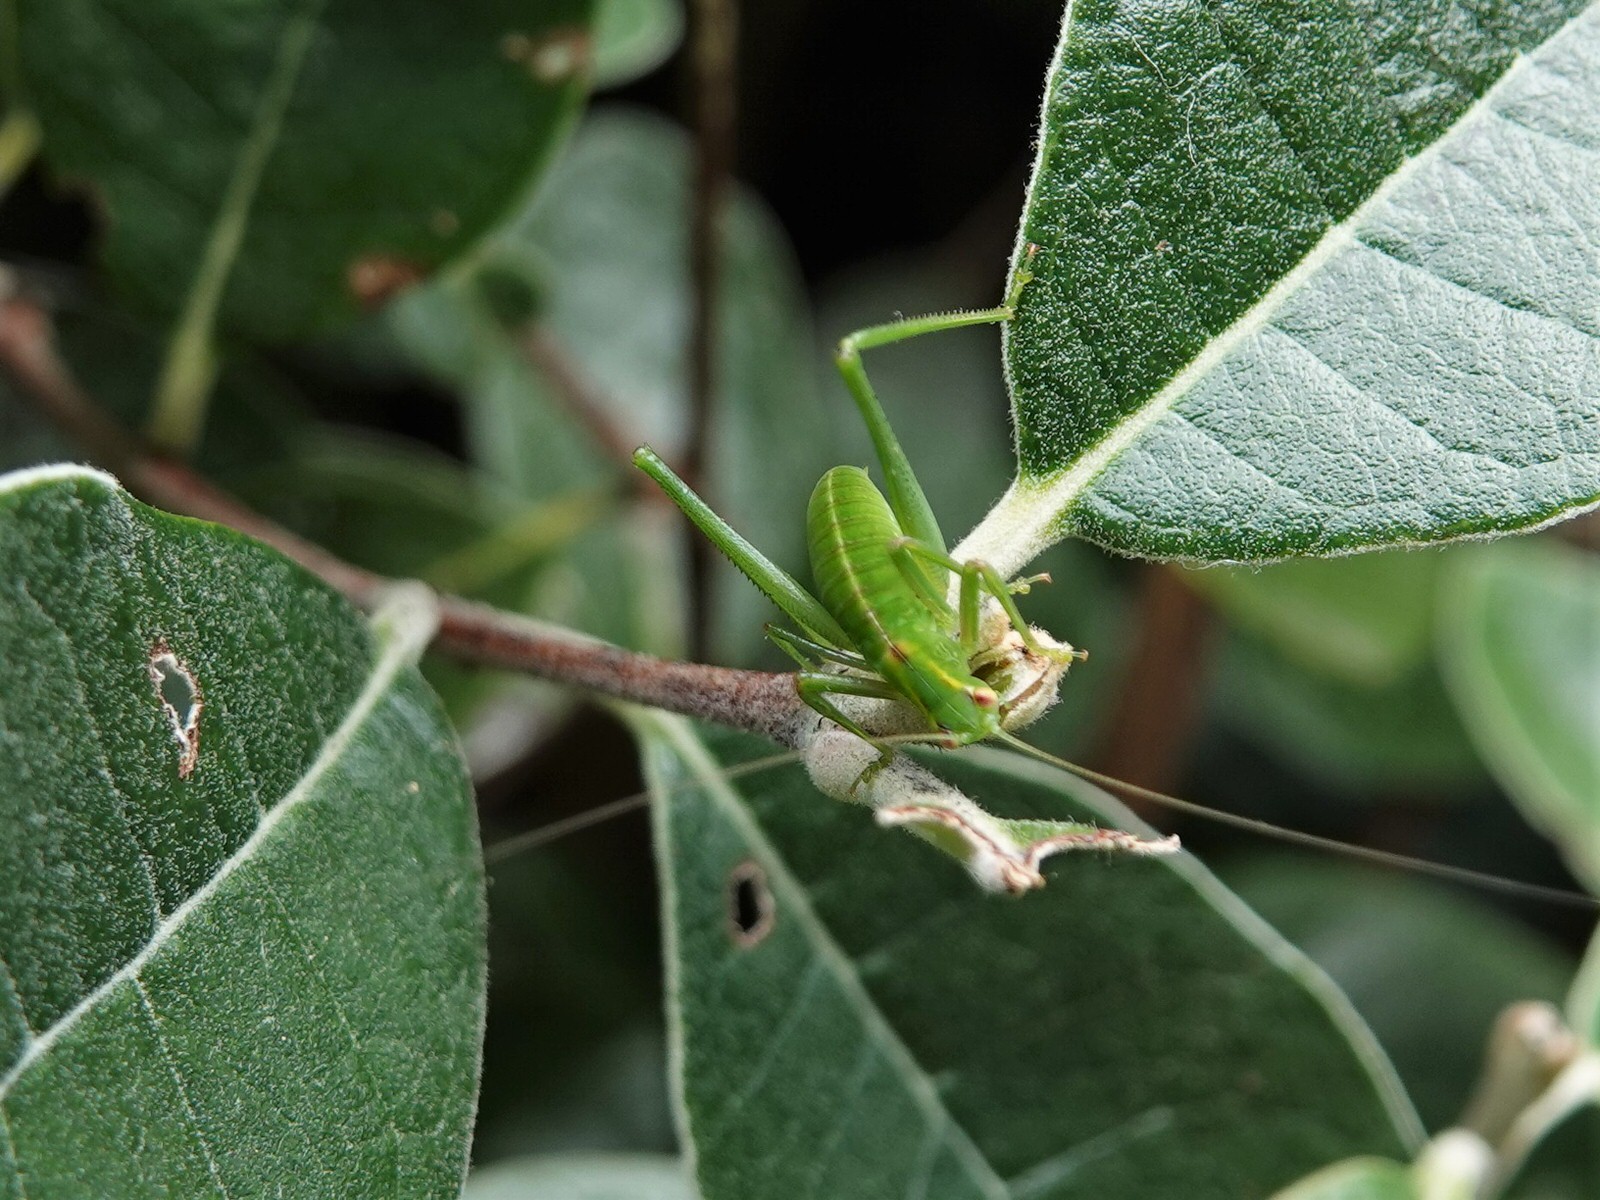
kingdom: Animalia
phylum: Arthropoda
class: Insecta
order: Orthoptera
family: Tettigoniidae
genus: Caedicia
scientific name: Caedicia simplex
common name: Common garden katydid
